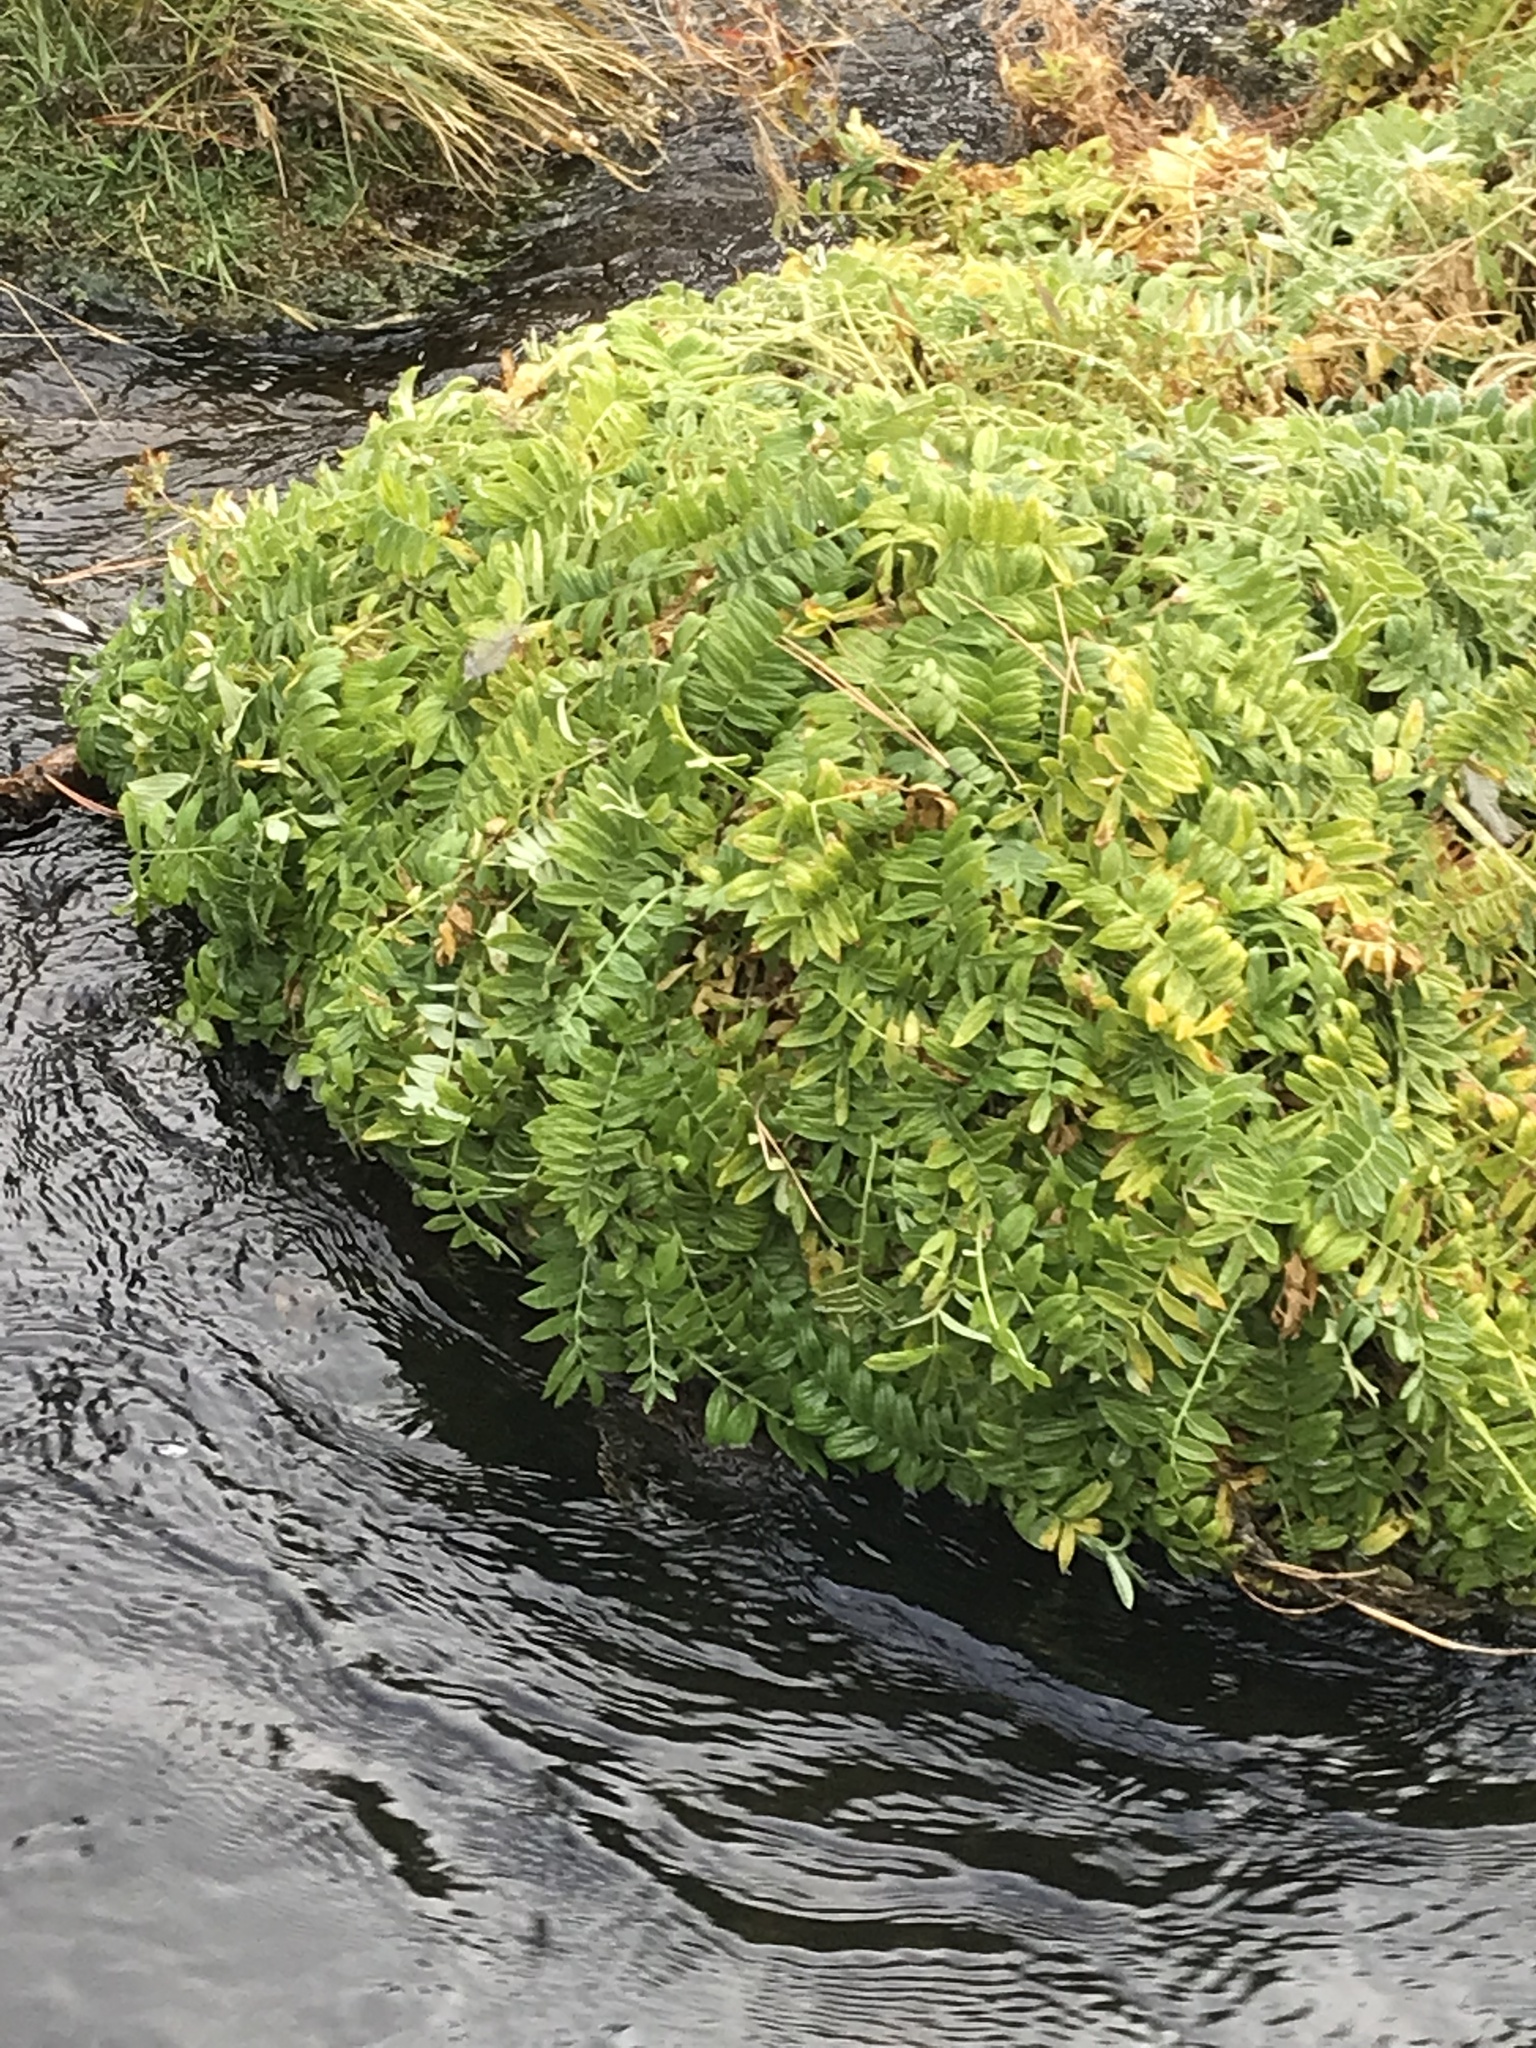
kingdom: Plantae
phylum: Tracheophyta
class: Magnoliopsida
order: Ericales
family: Polemoniaceae
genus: Polemonium
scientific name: Polemonium occidentale
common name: Western jacob's-ladder
